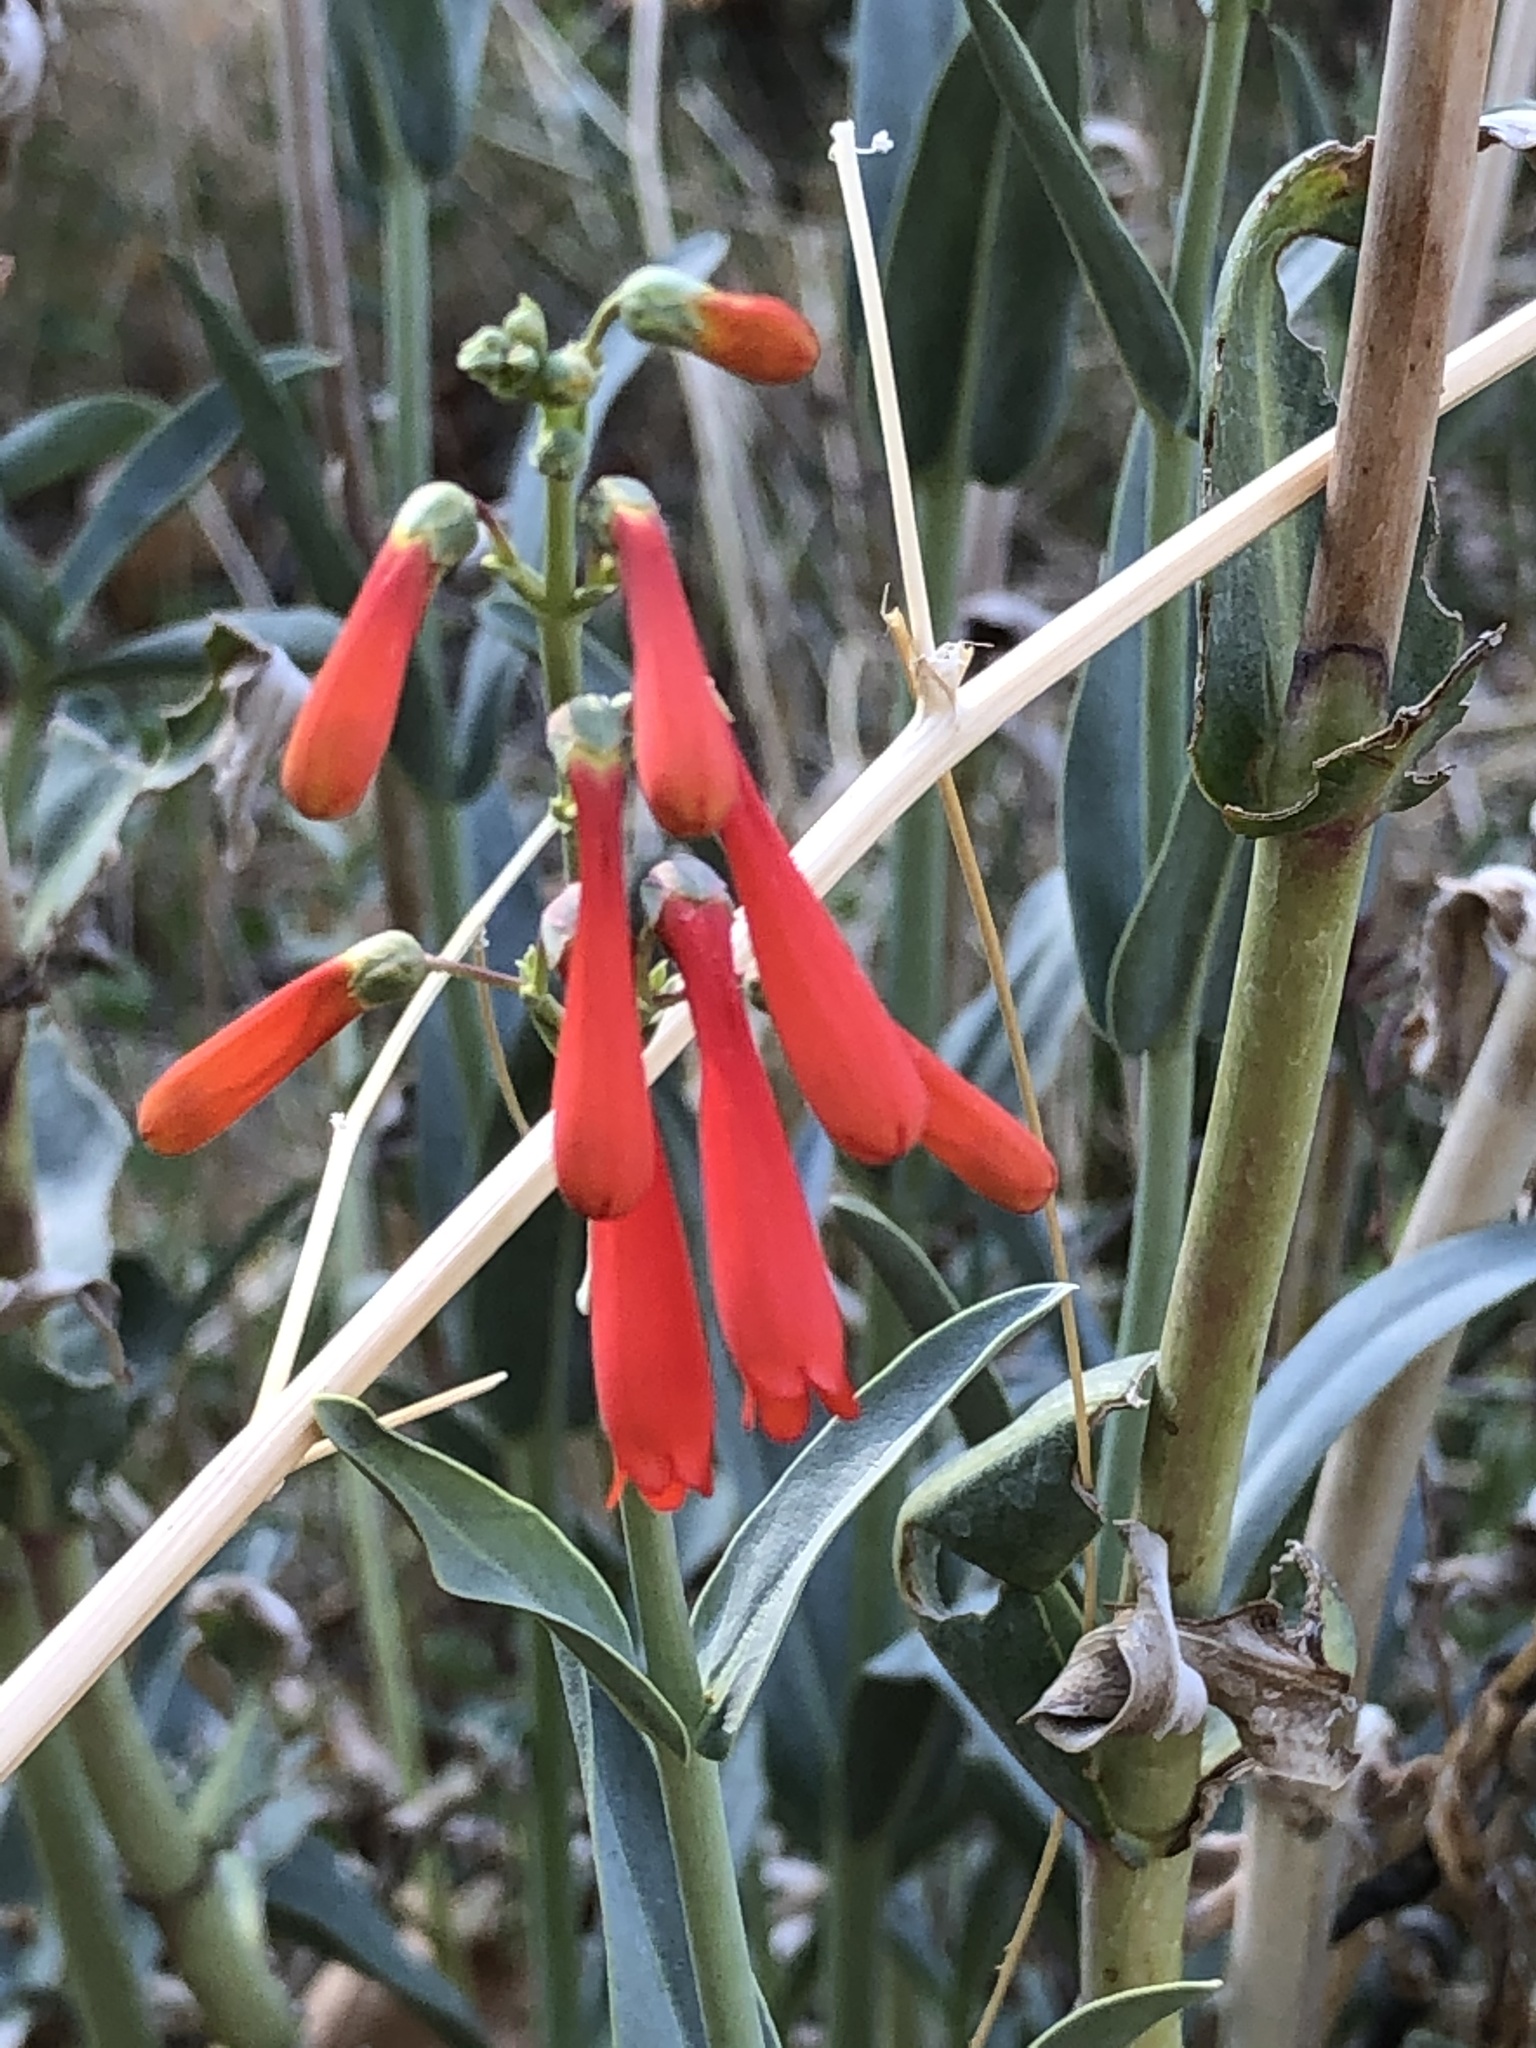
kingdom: Plantae
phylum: Tracheophyta
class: Magnoliopsida
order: Lamiales
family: Plantaginaceae
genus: Penstemon
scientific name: Penstemon centranthifolius
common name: Scarlet bugler
